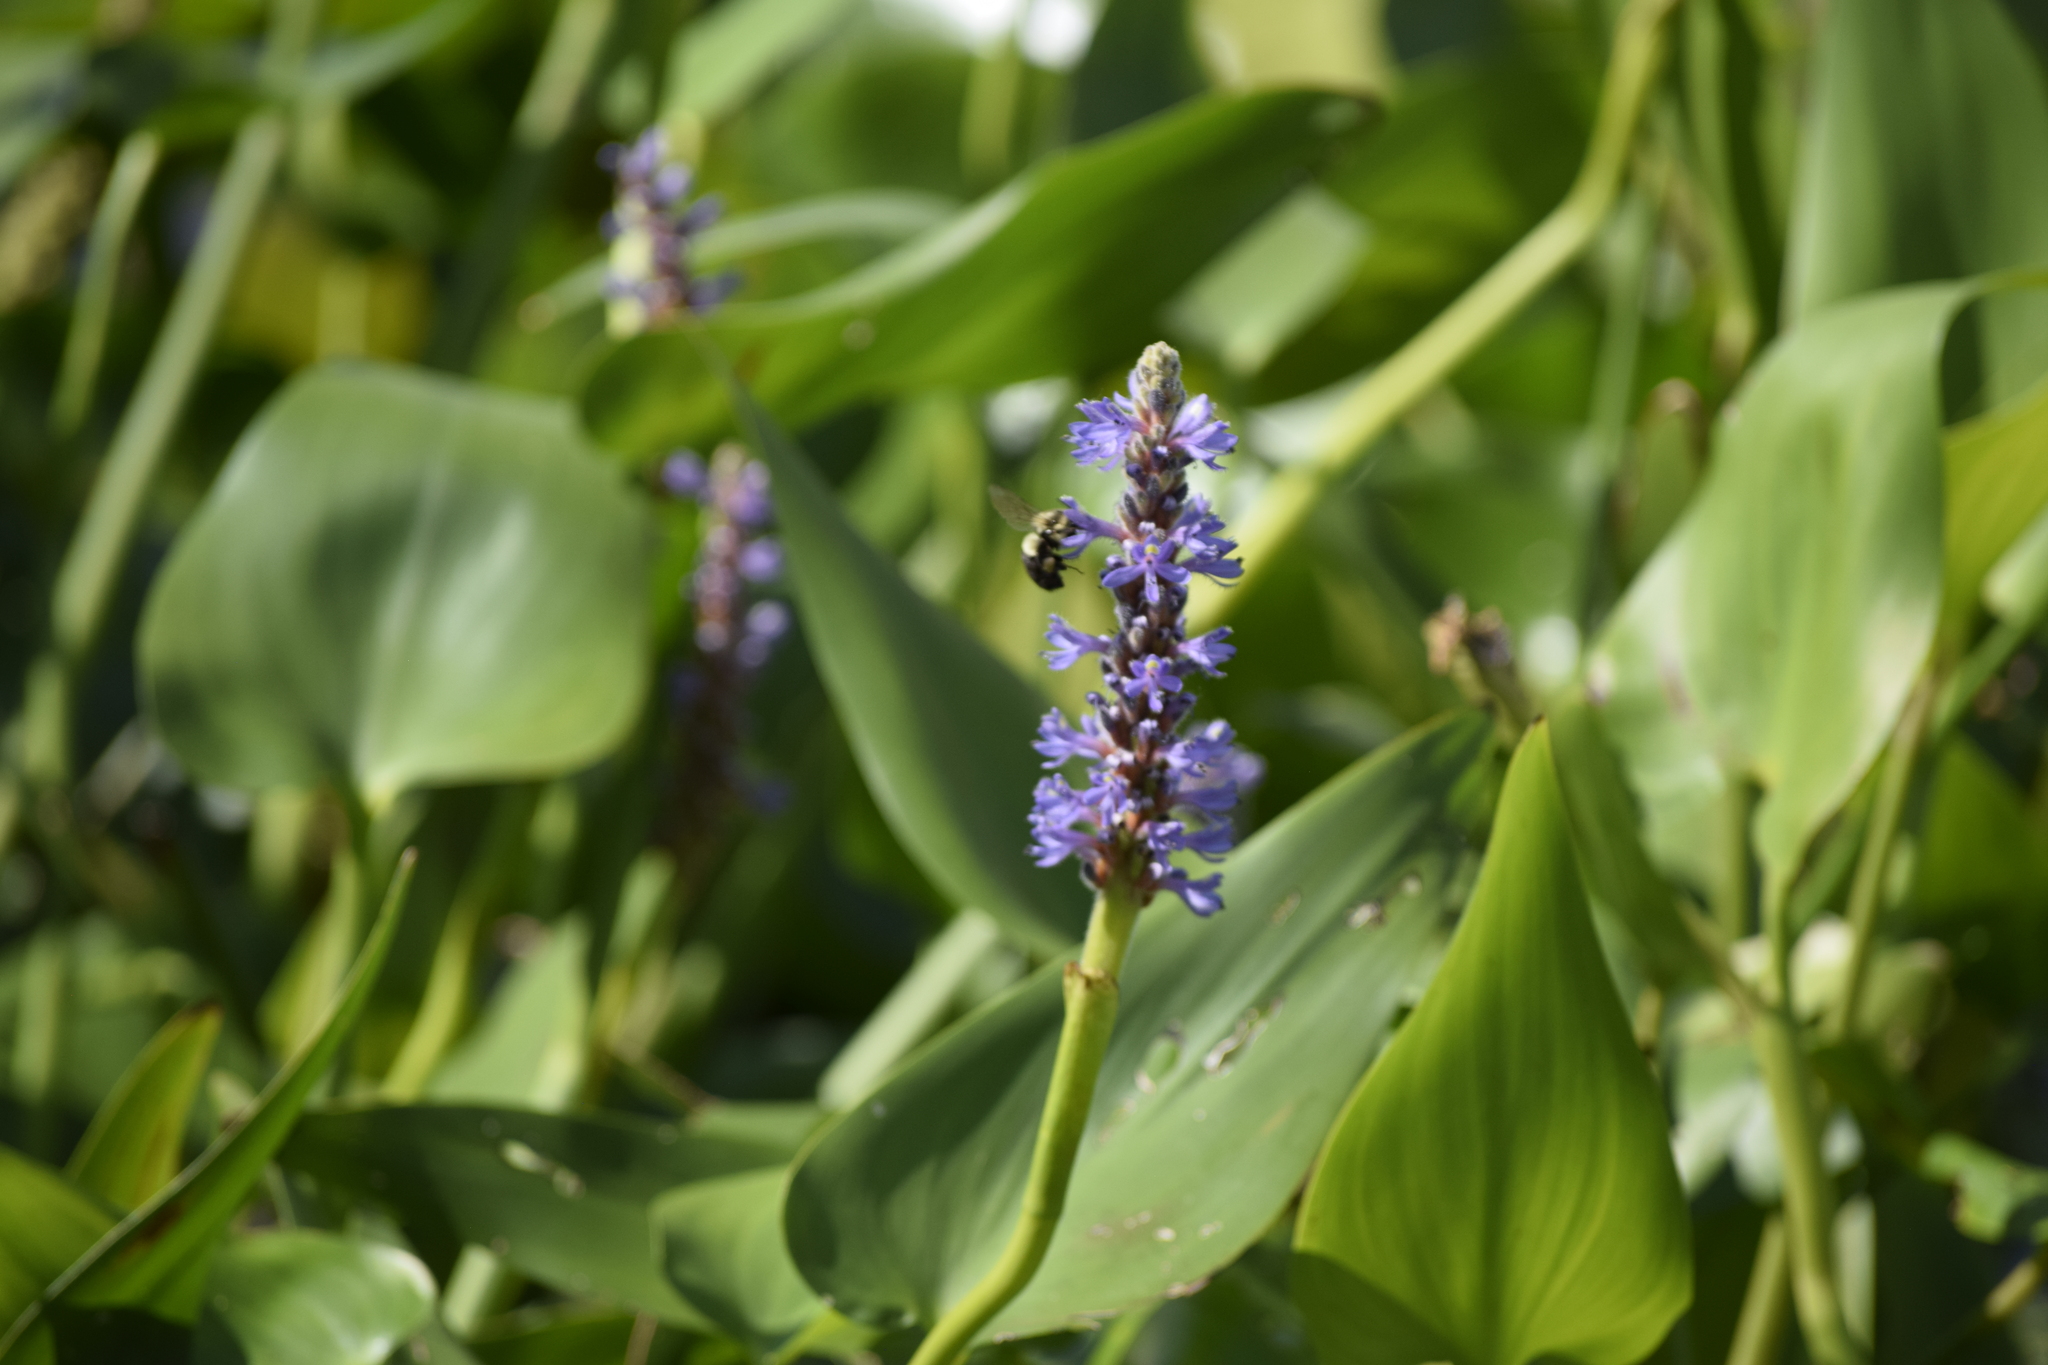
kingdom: Plantae
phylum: Tracheophyta
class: Liliopsida
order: Commelinales
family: Pontederiaceae
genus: Pontederia
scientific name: Pontederia cordata
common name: Pickerelweed
